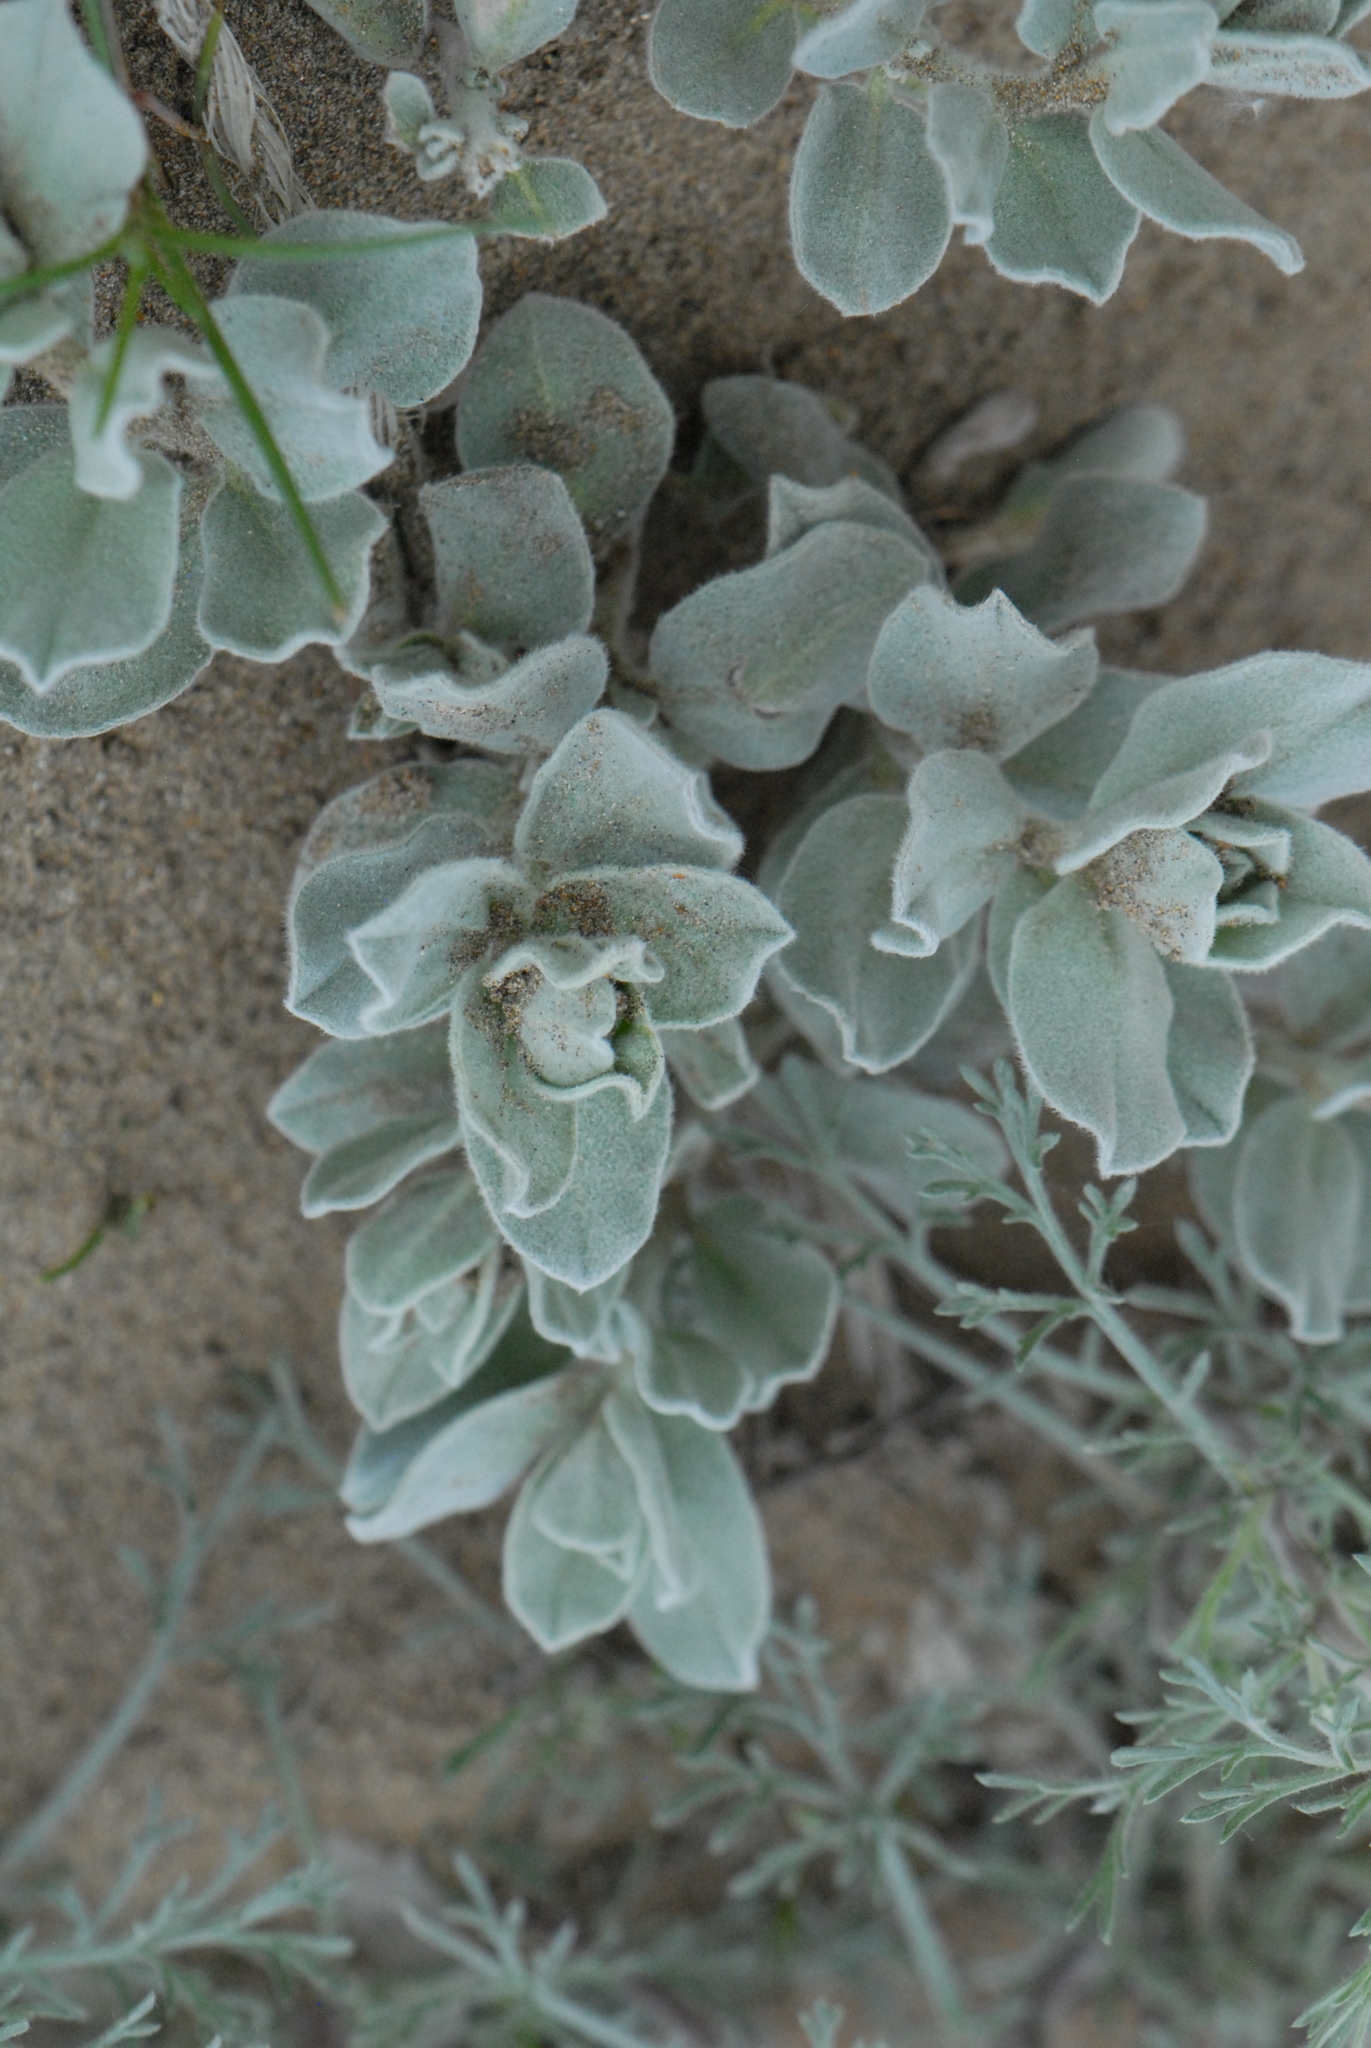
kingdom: Plantae
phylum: Tracheophyta
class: Magnoliopsida
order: Solanales
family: Convolvulaceae
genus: Convolvulus
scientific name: Convolvulus persicus
